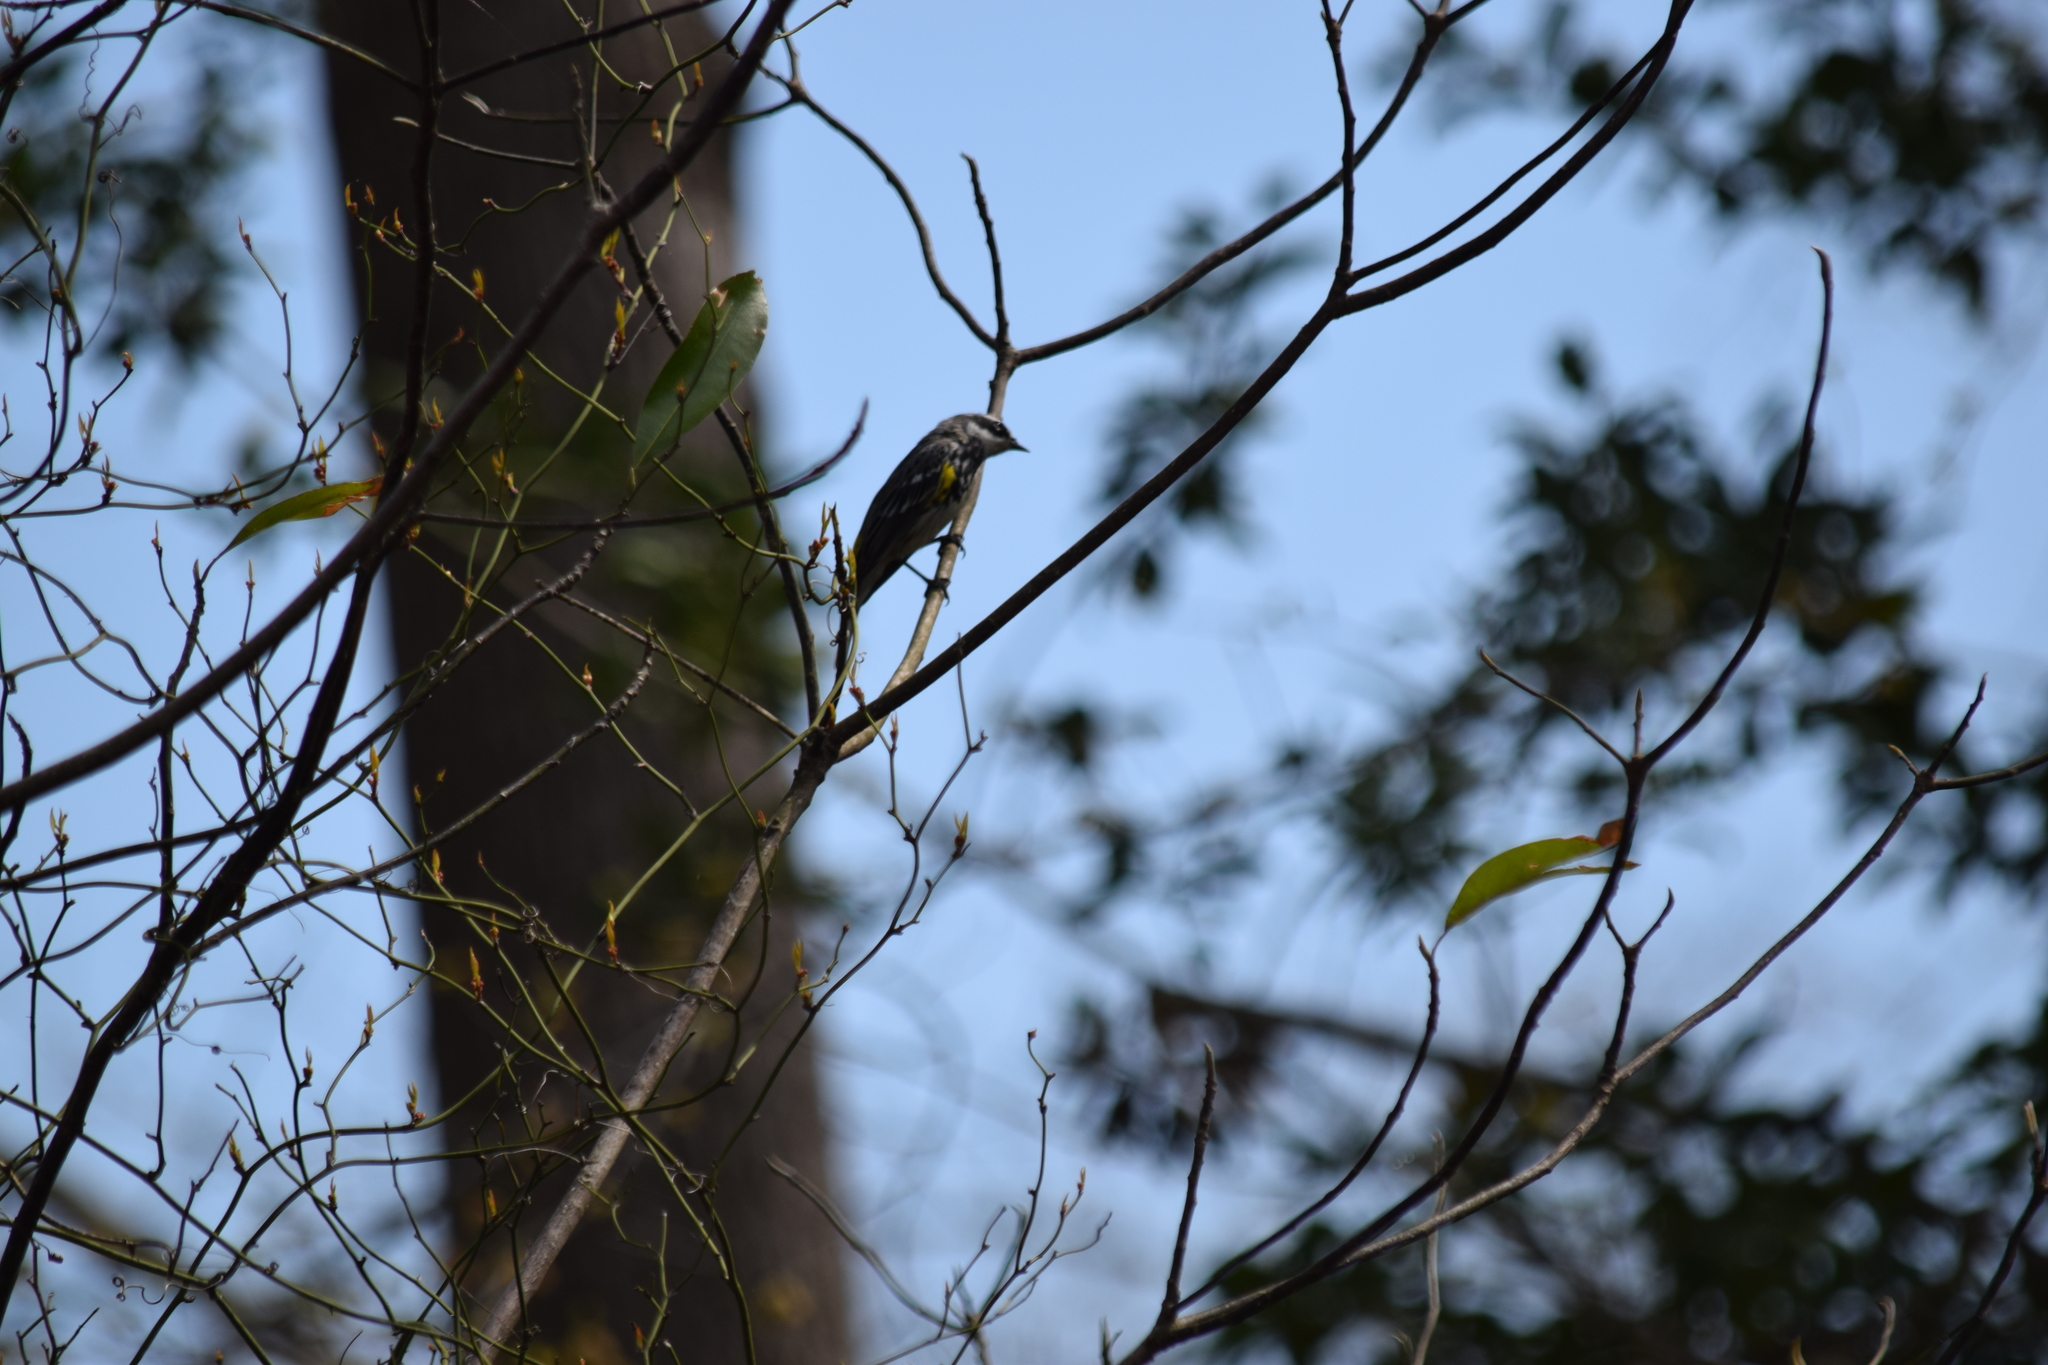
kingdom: Animalia
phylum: Chordata
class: Aves
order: Passeriformes
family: Parulidae
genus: Setophaga
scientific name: Setophaga coronata
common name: Myrtle warbler
